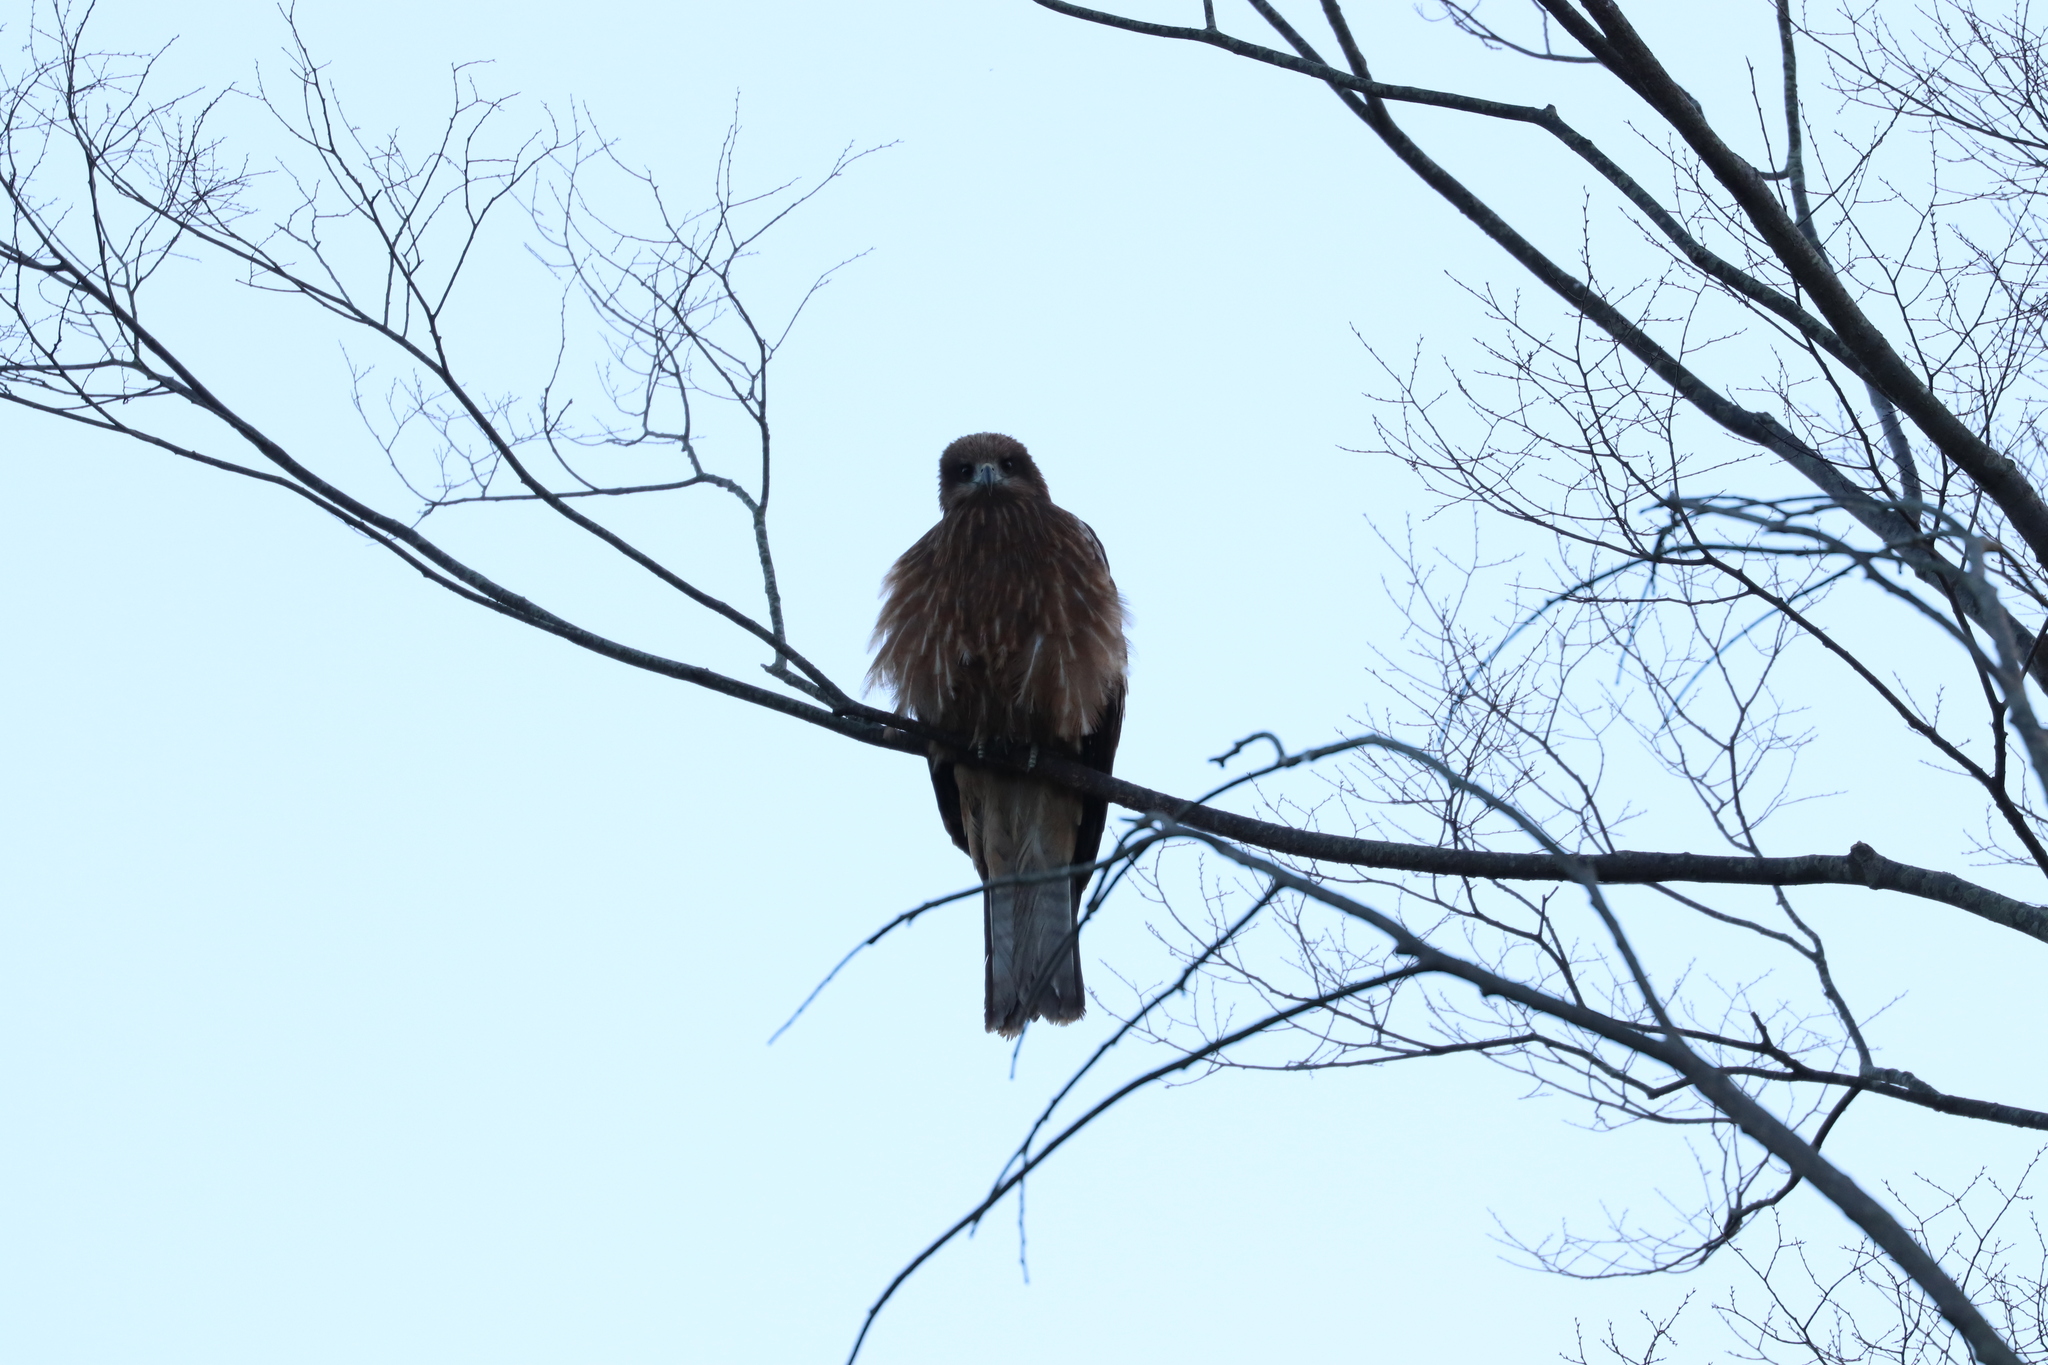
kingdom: Animalia
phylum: Chordata
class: Aves
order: Accipitriformes
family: Accipitridae
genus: Milvus
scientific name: Milvus migrans
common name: Black kite
